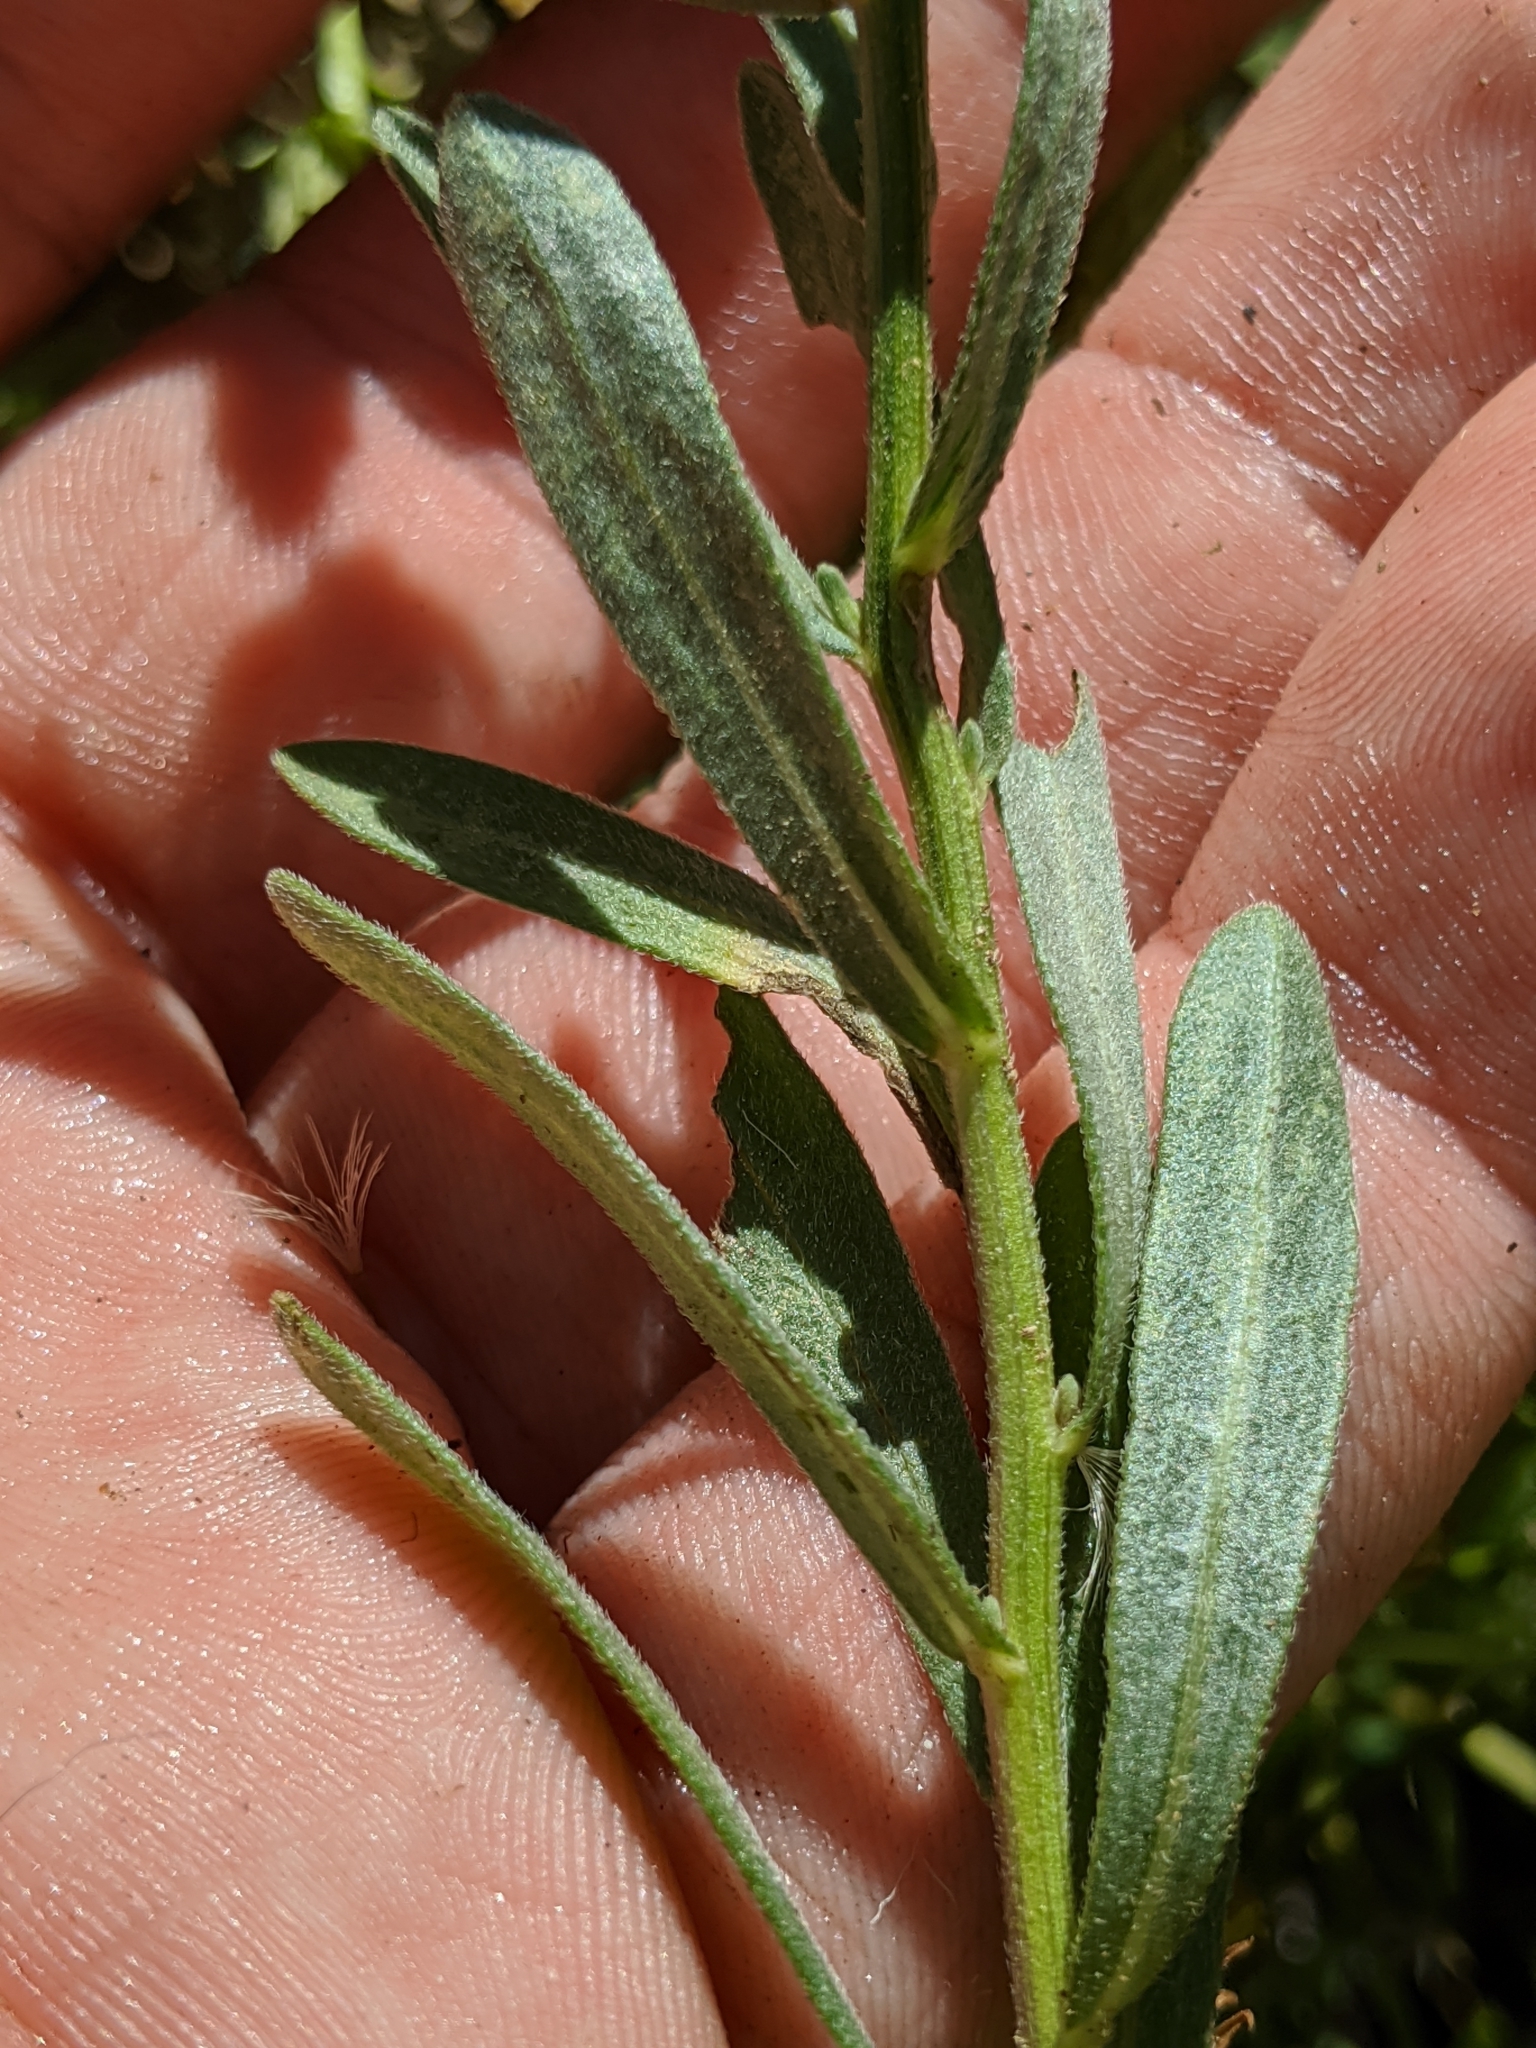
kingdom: Plantae
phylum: Tracheophyta
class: Magnoliopsida
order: Asterales
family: Asteraceae
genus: Erigeron
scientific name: Erigeron inornatus
